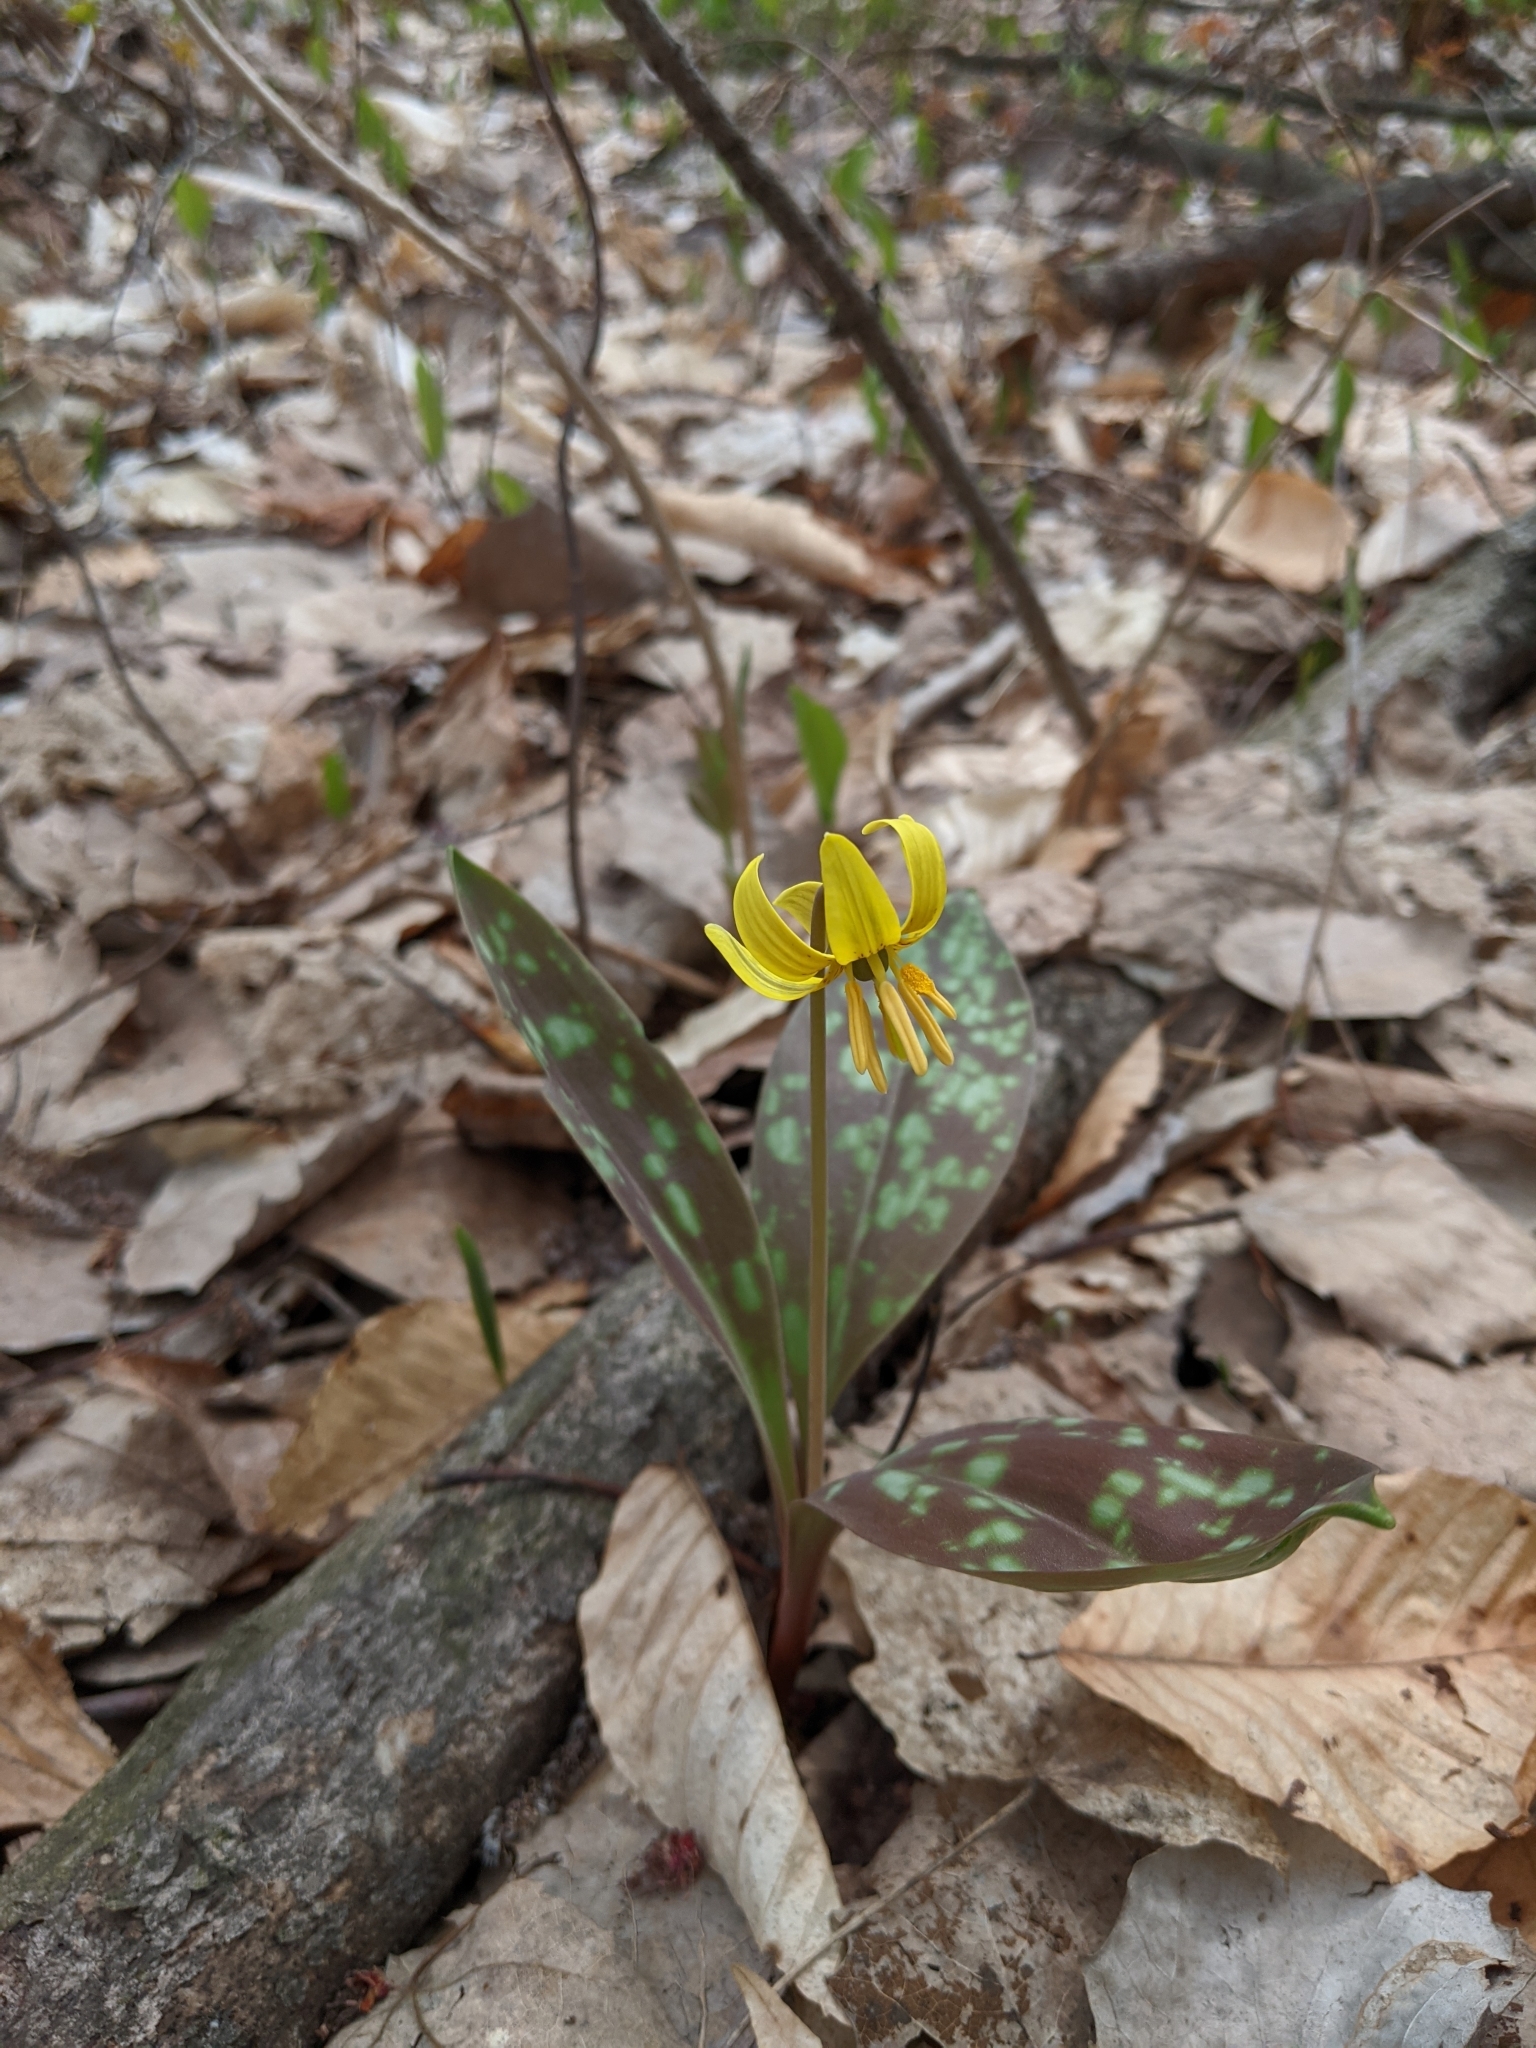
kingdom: Plantae
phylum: Tracheophyta
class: Liliopsida
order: Liliales
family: Liliaceae
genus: Erythronium
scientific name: Erythronium americanum
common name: Yellow adder's-tongue
